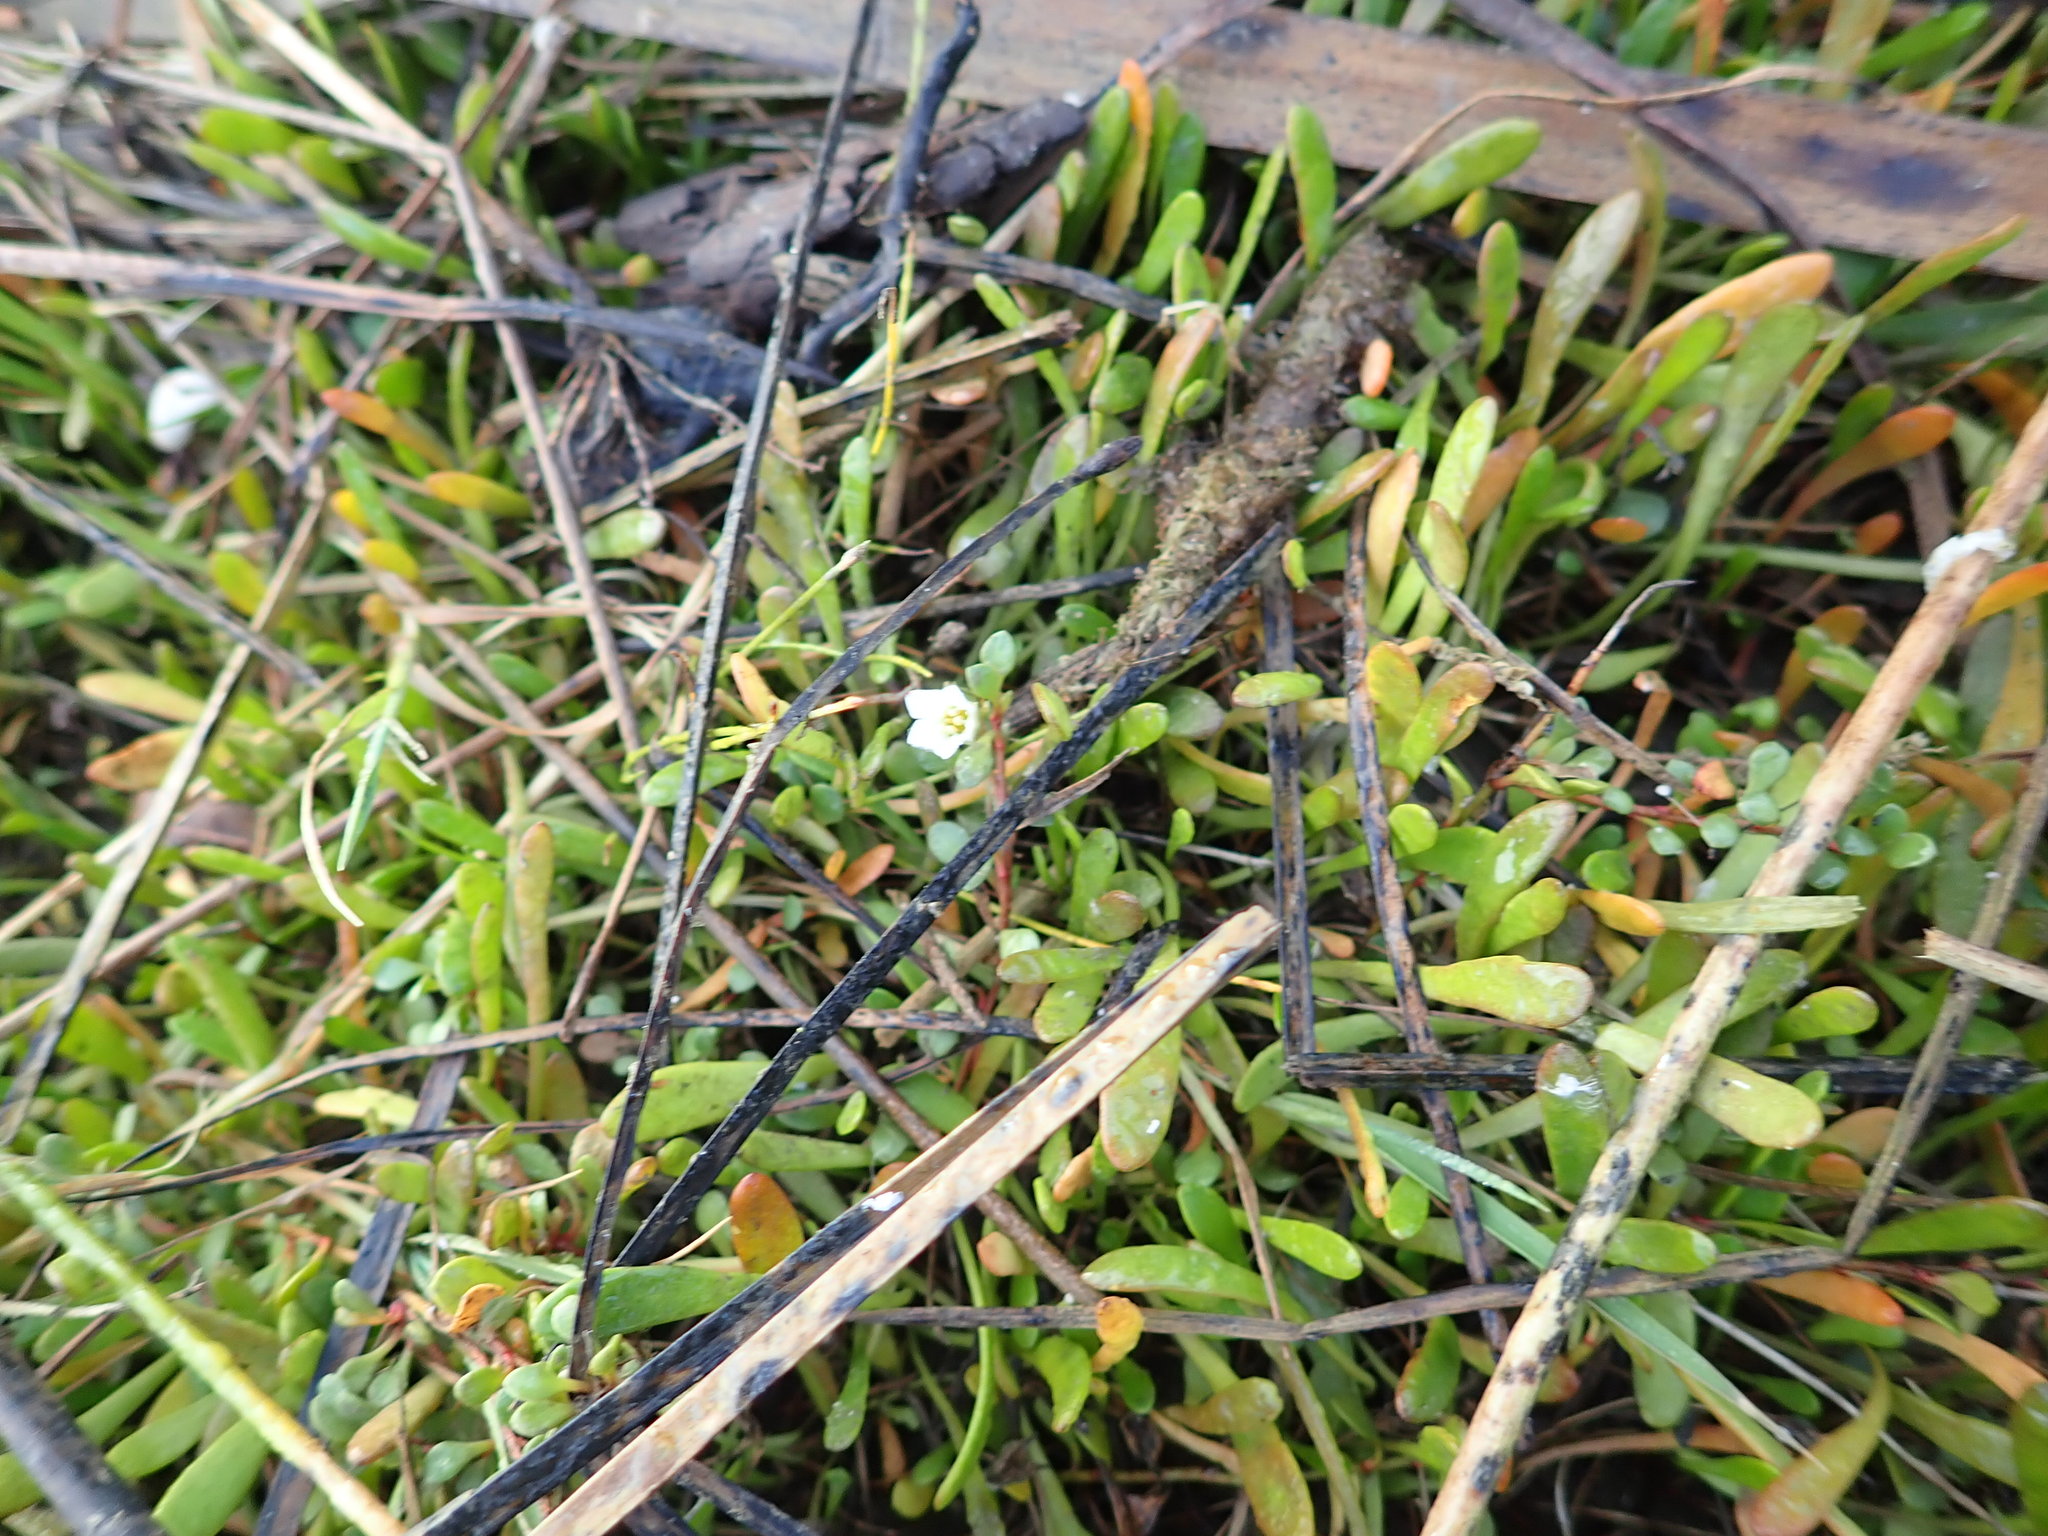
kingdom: Plantae
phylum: Tracheophyta
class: Magnoliopsida
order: Ericales
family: Primulaceae
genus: Samolus
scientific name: Samolus repens
